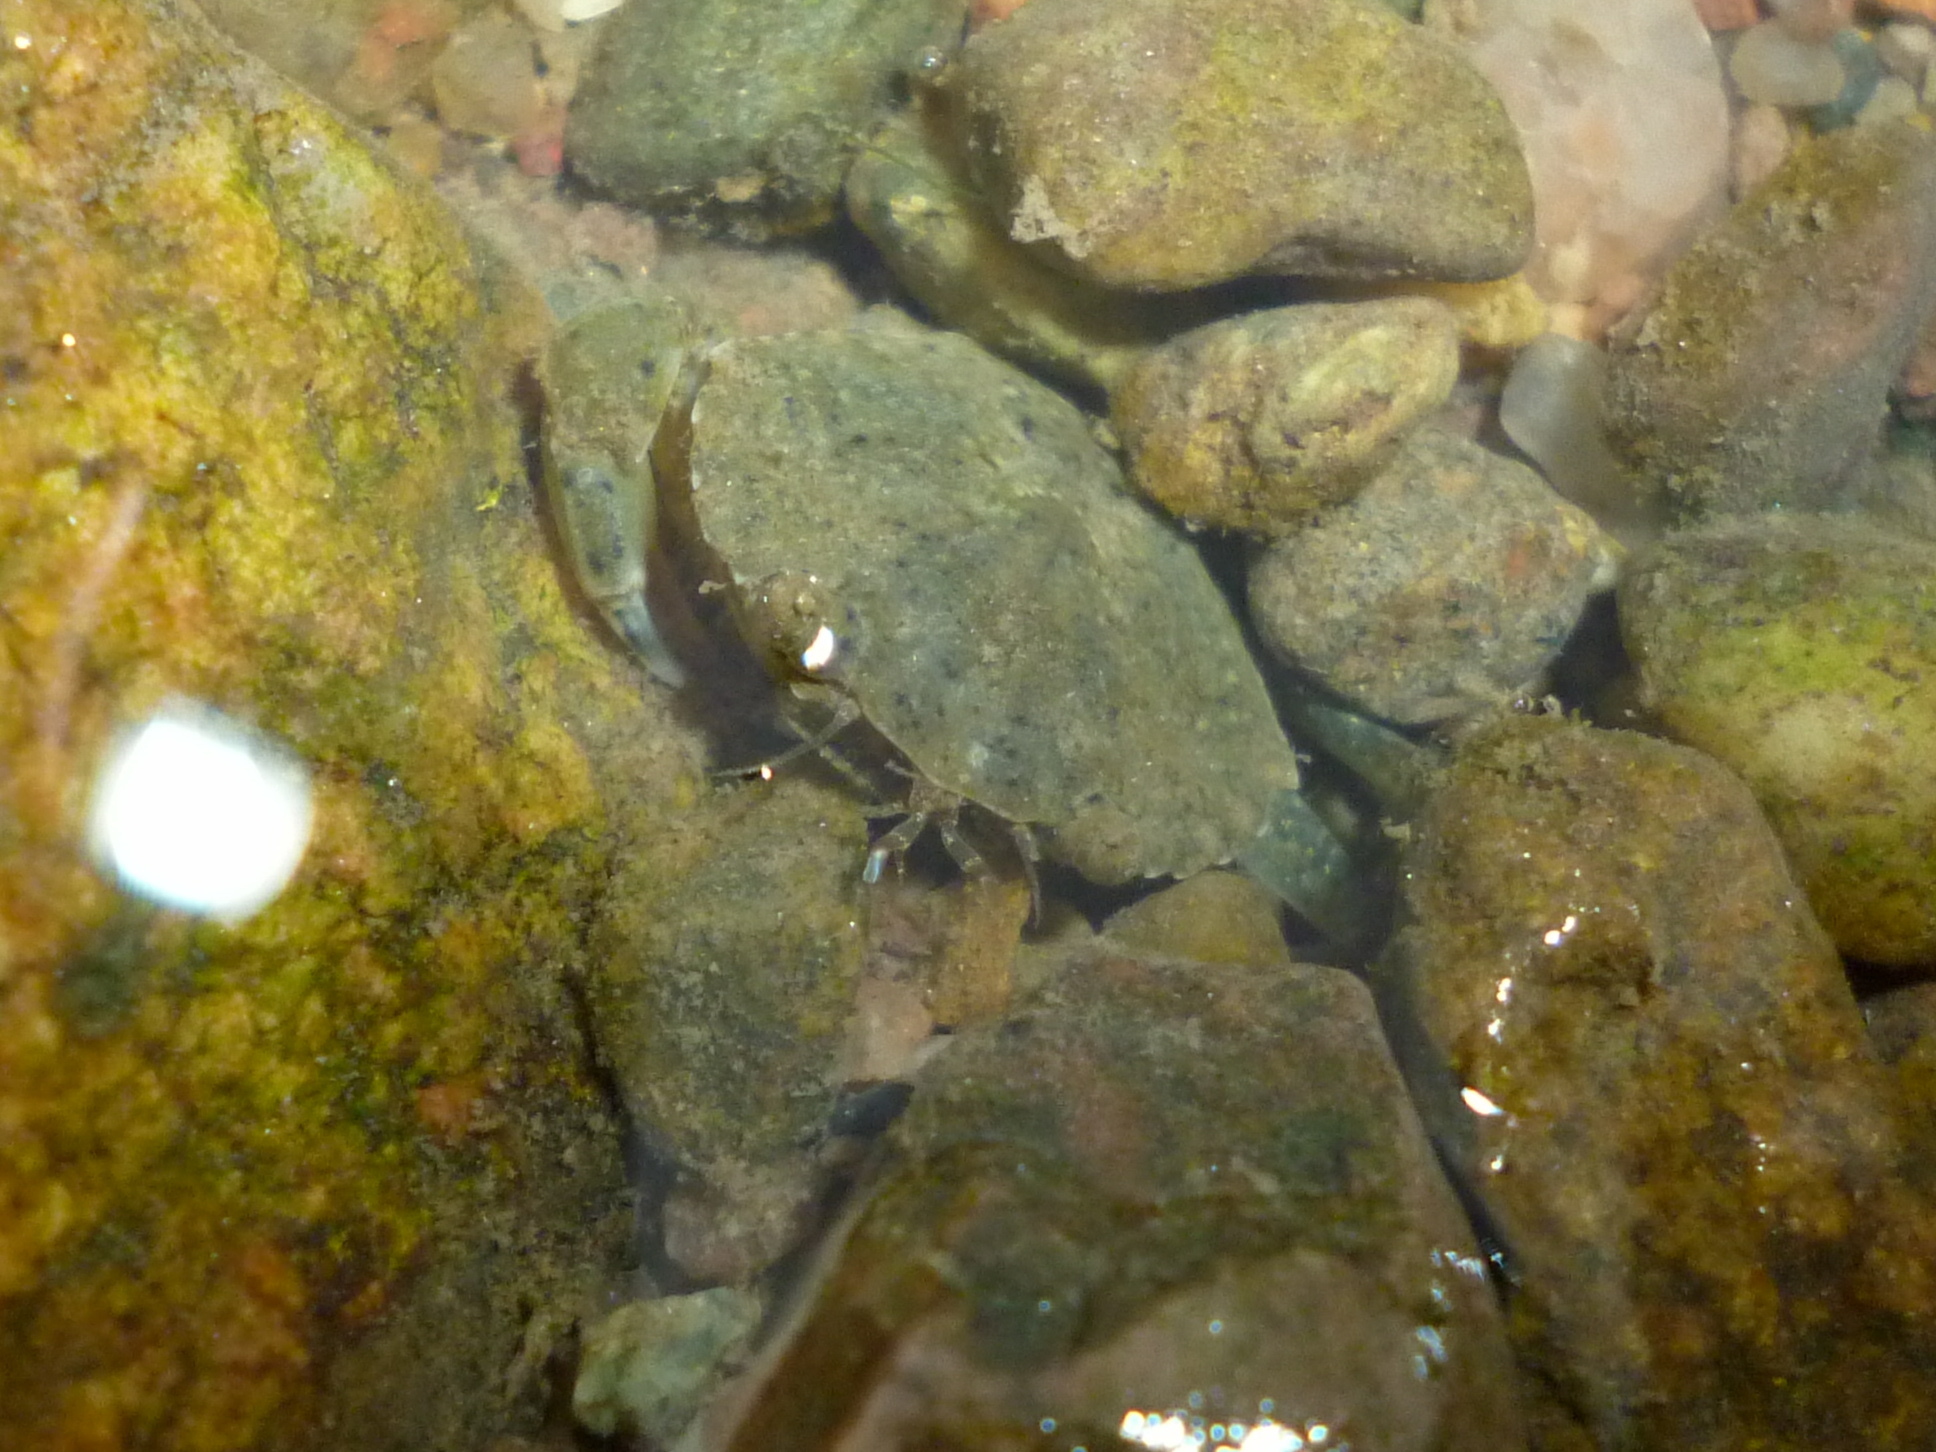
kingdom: Animalia
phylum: Arthropoda
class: Malacostraca
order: Decapoda
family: Carcinidae
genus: Carcinus
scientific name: Carcinus maenas
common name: European green crab
